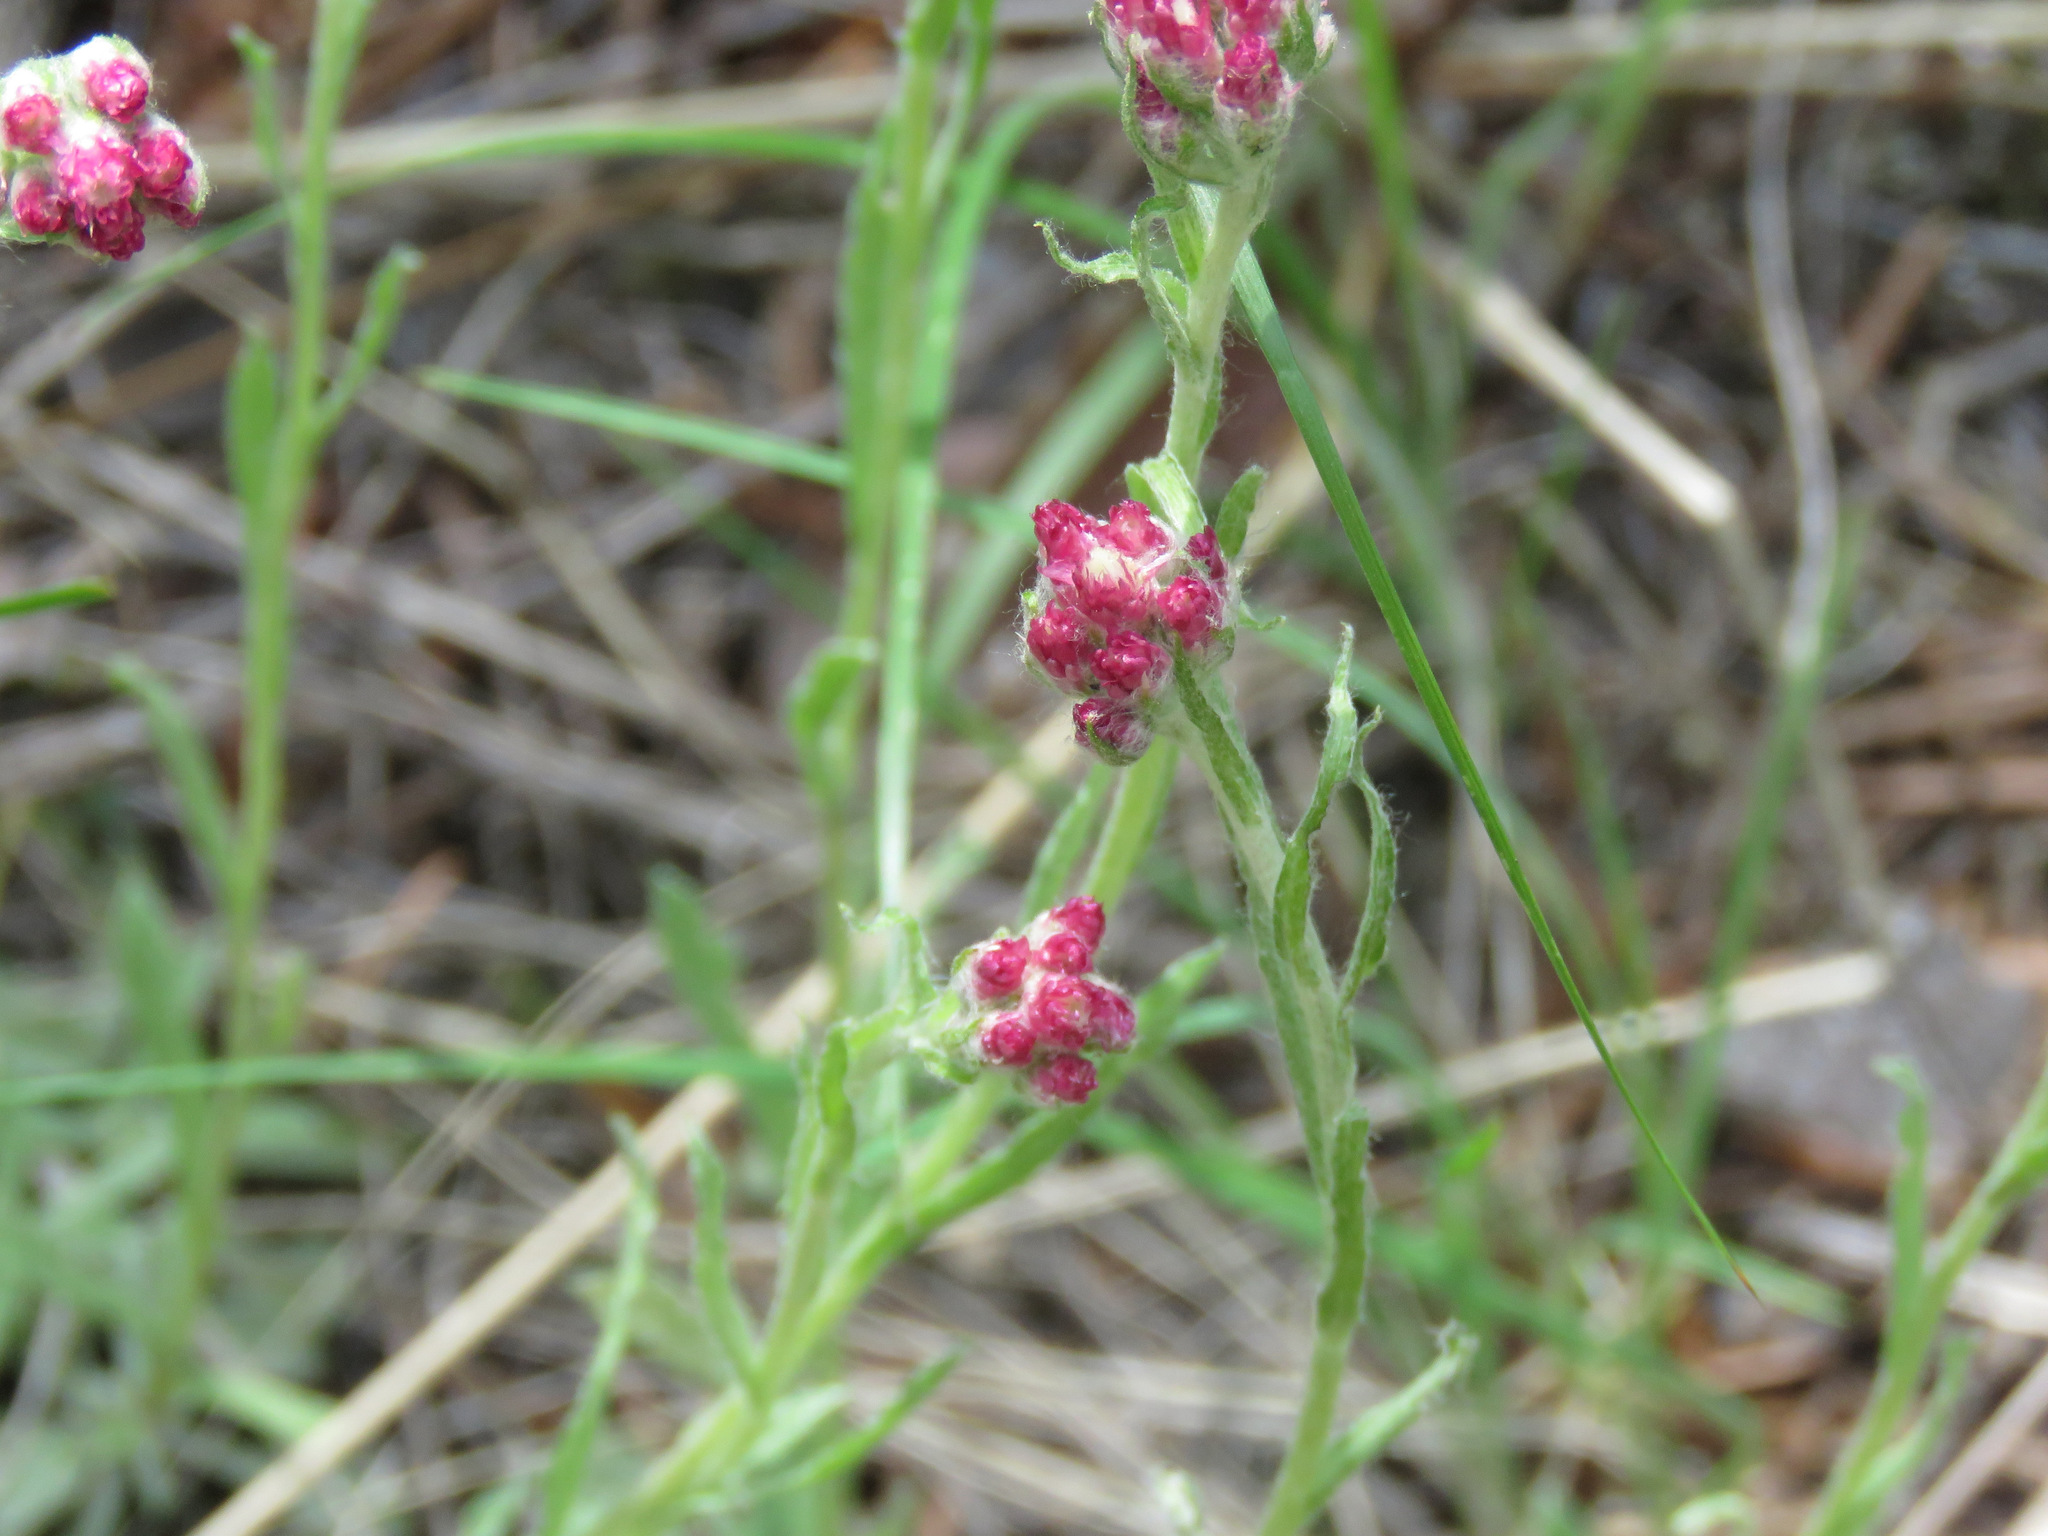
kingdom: Plantae
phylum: Tracheophyta
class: Magnoliopsida
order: Asterales
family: Asteraceae
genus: Antennaria
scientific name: Antennaria rosea
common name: Rosy pussytoes
